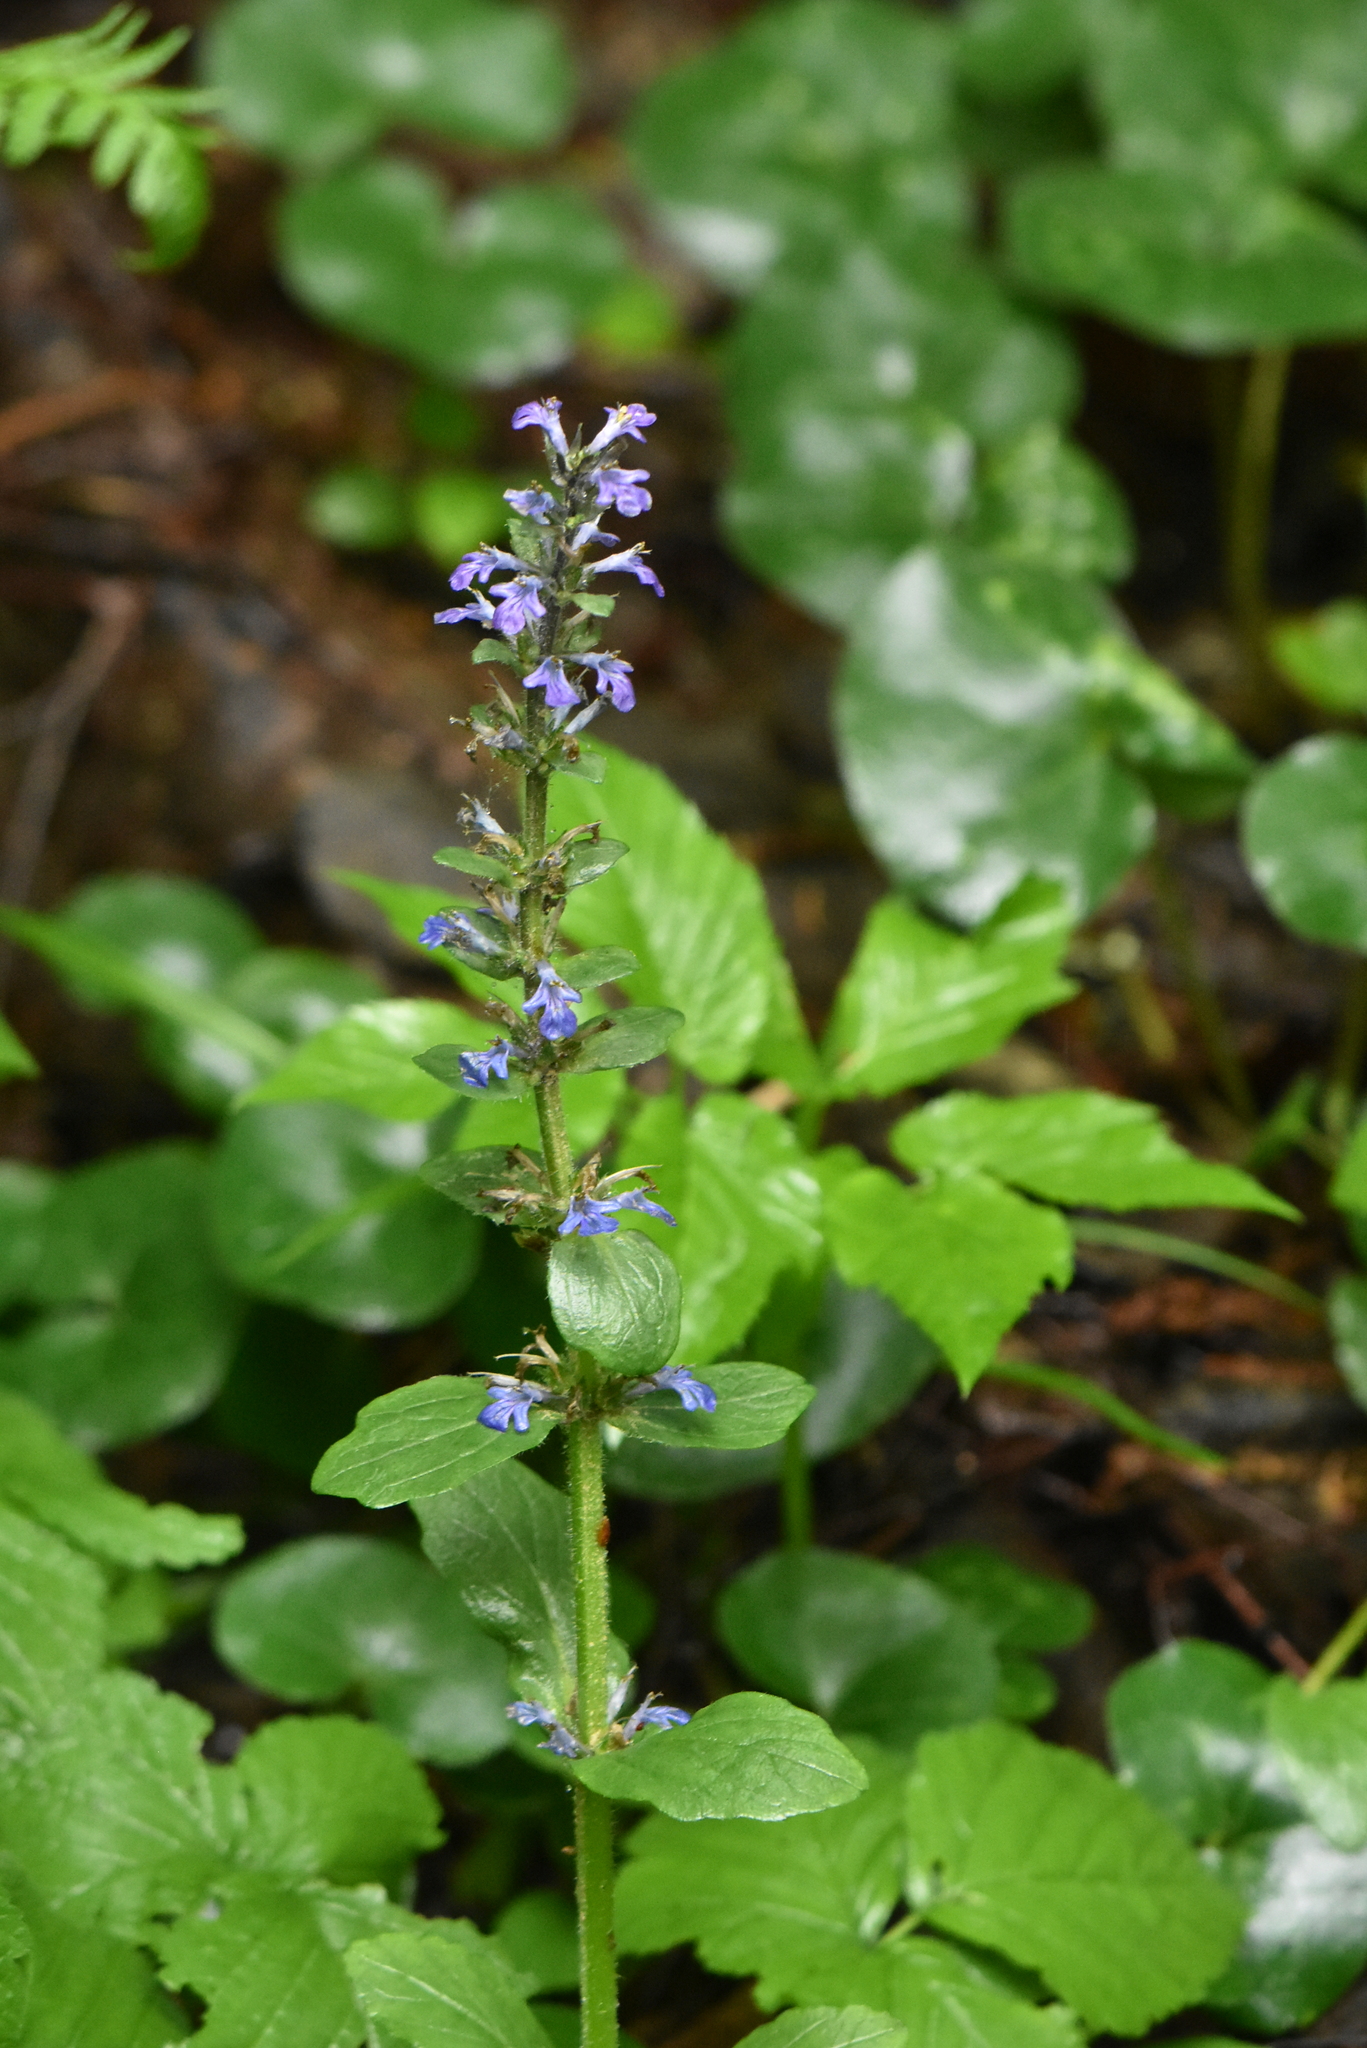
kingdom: Plantae
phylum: Tracheophyta
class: Magnoliopsida
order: Lamiales
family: Lamiaceae
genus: Ajuga
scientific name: Ajuga reptans
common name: Bugle
